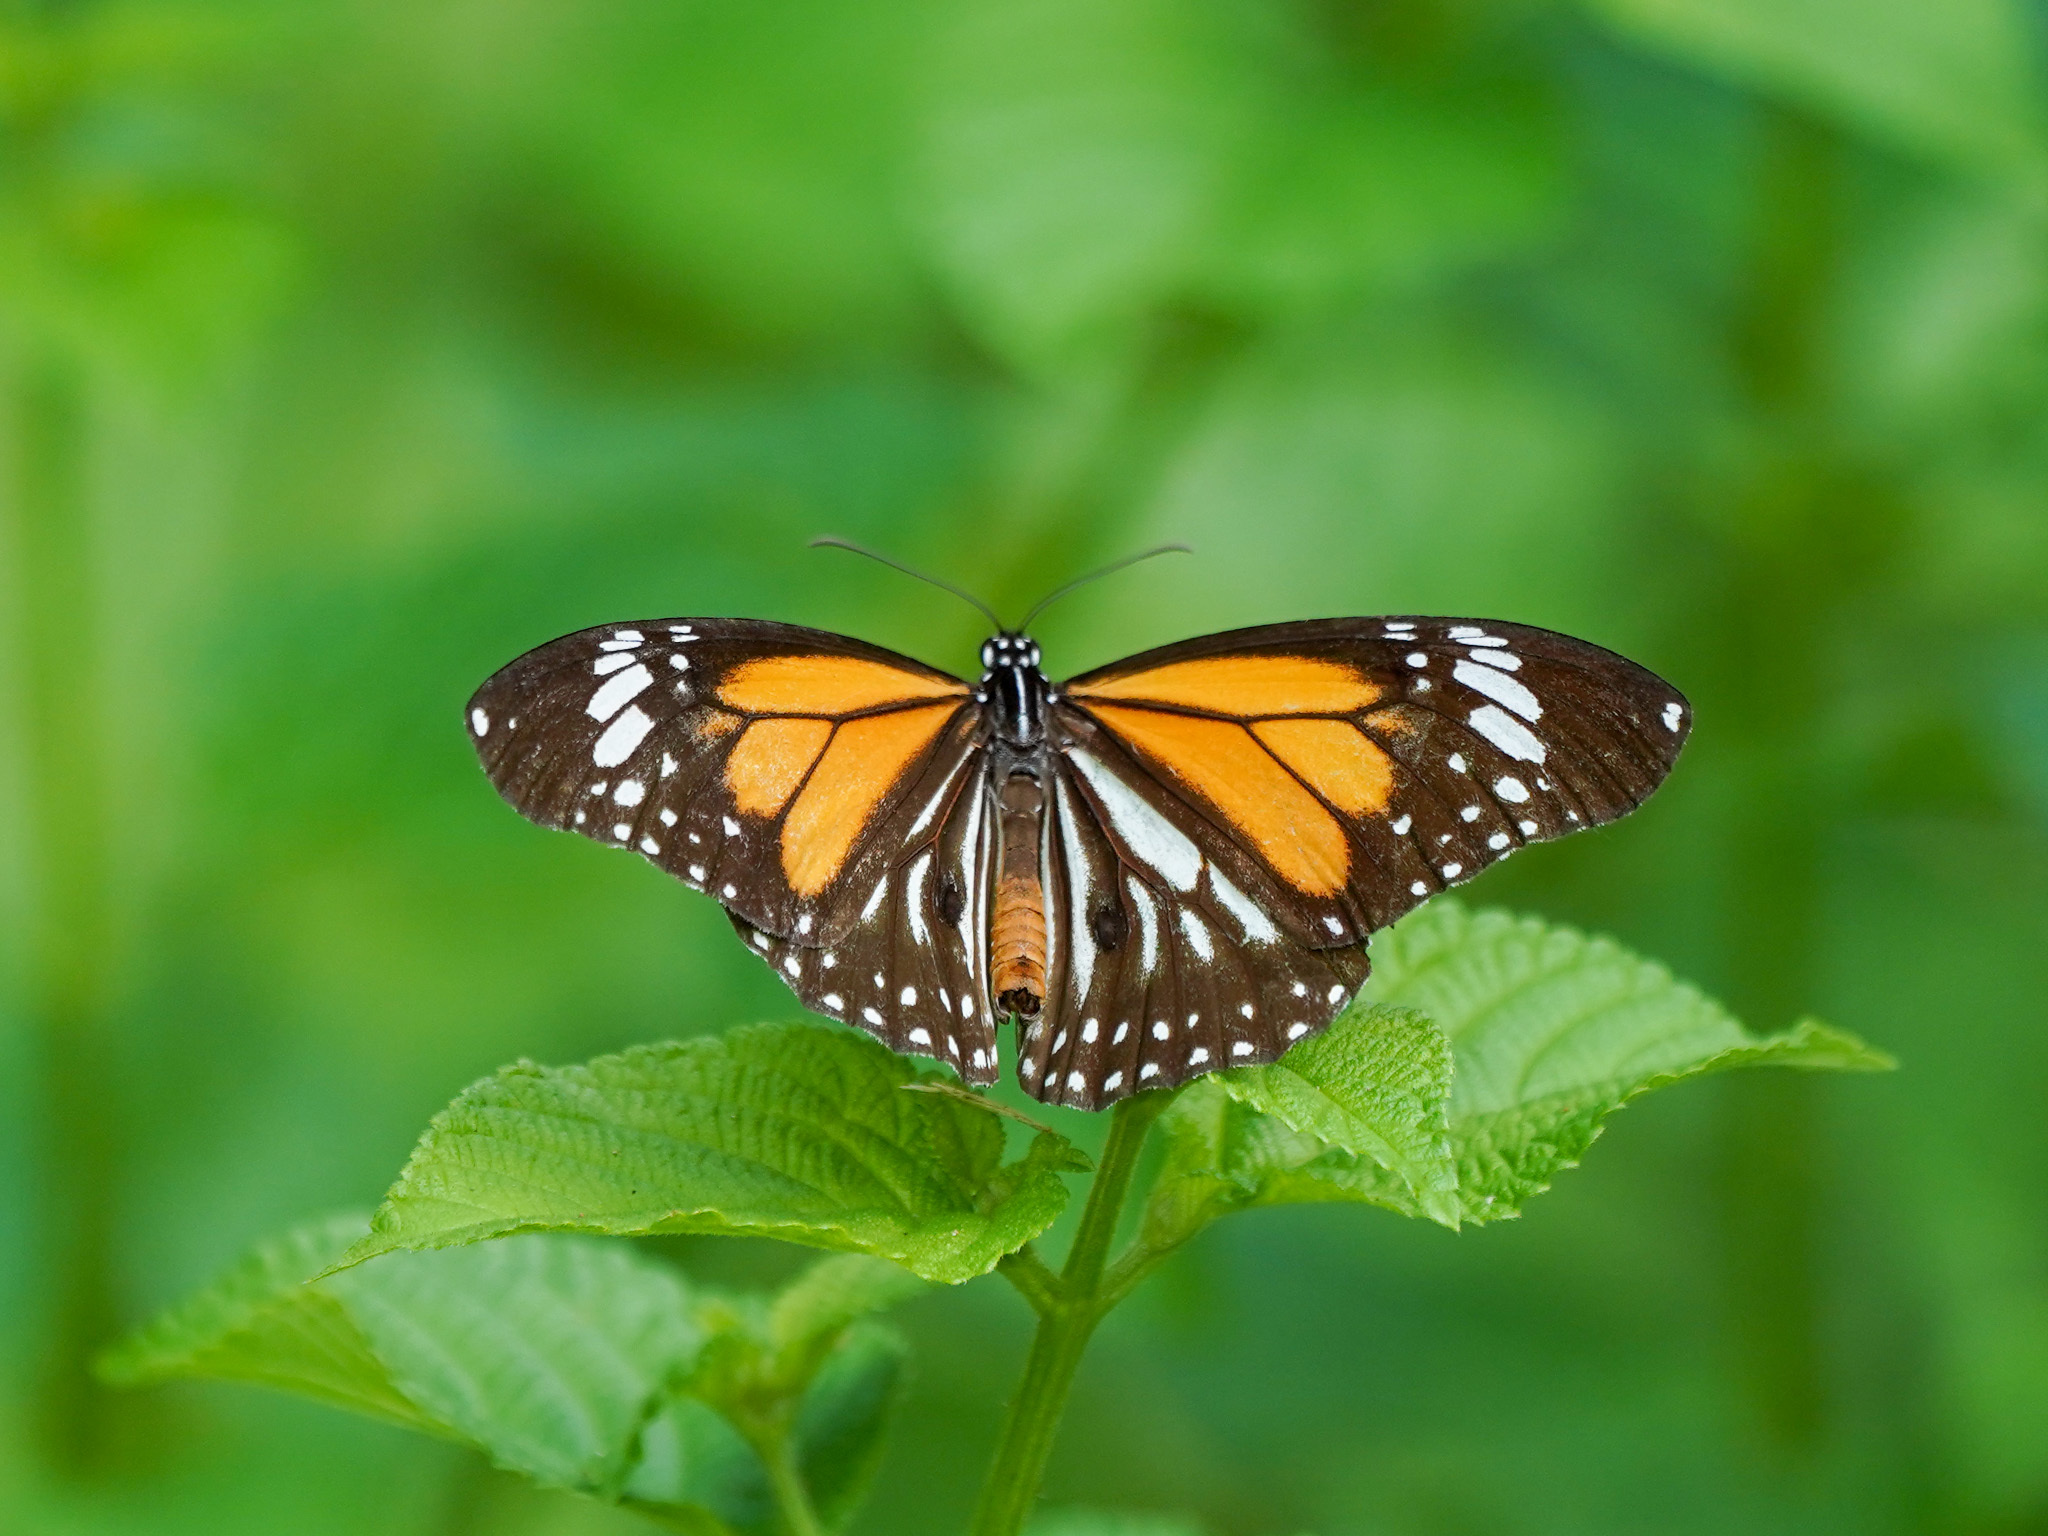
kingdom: Animalia
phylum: Arthropoda
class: Insecta
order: Lepidoptera
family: Nymphalidae
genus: Danaus
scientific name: Danaus melanippus
